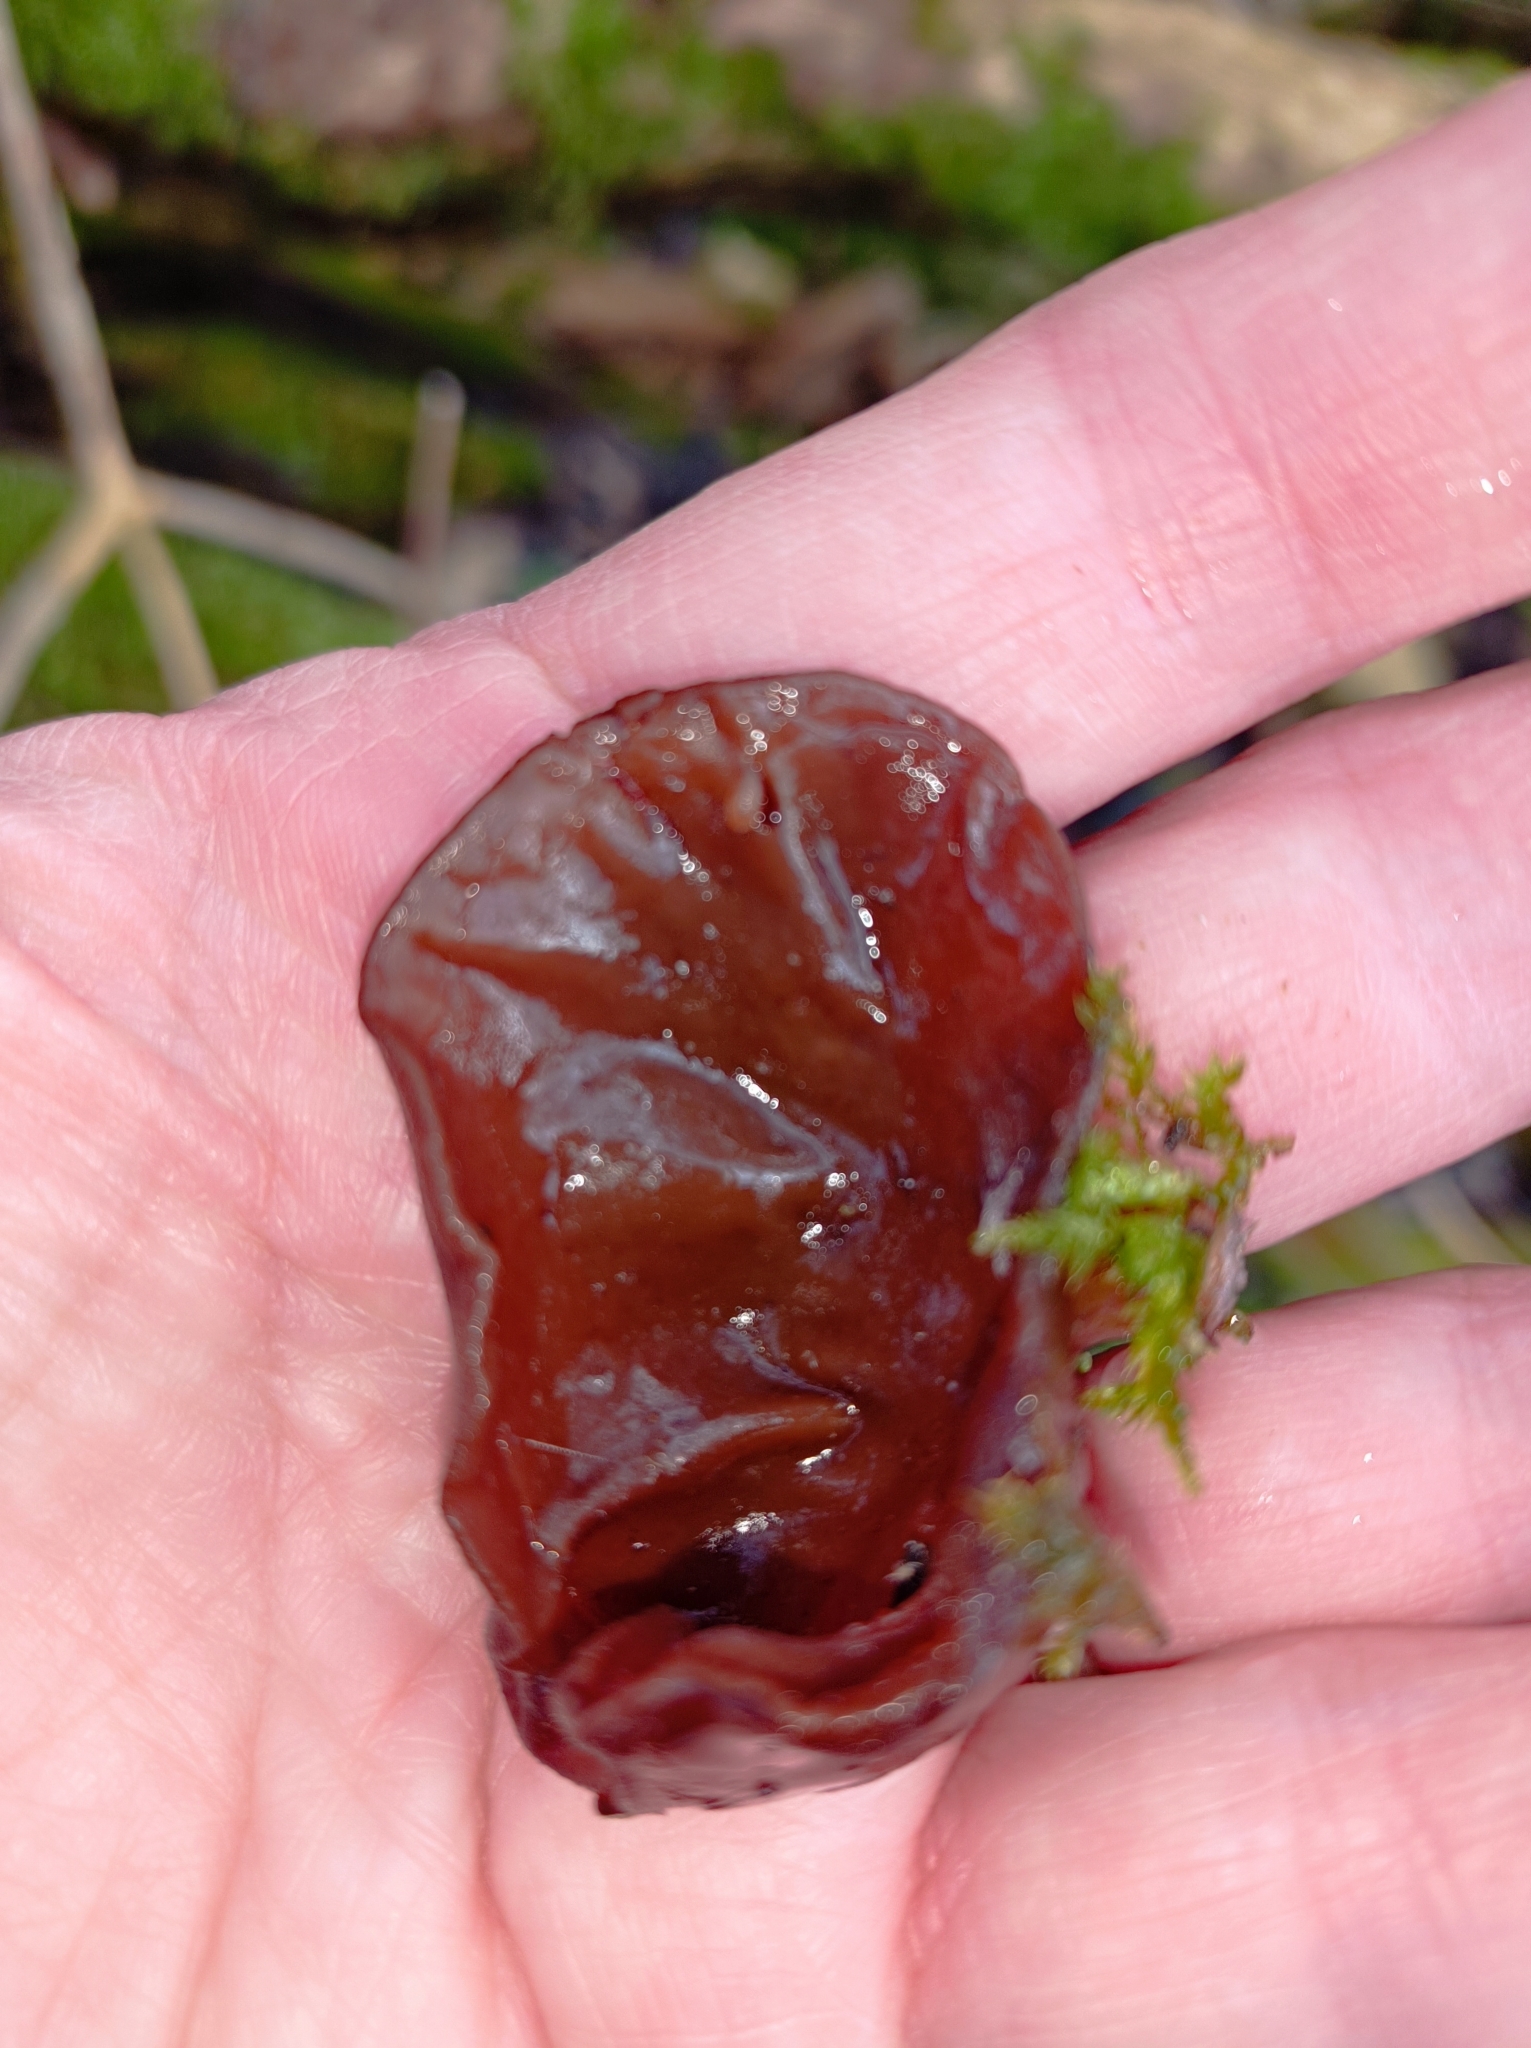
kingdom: Fungi
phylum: Basidiomycota
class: Agaricomycetes
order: Auriculariales
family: Auriculariaceae
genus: Auricularia
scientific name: Auricularia auricula-judae
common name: Jelly ear
